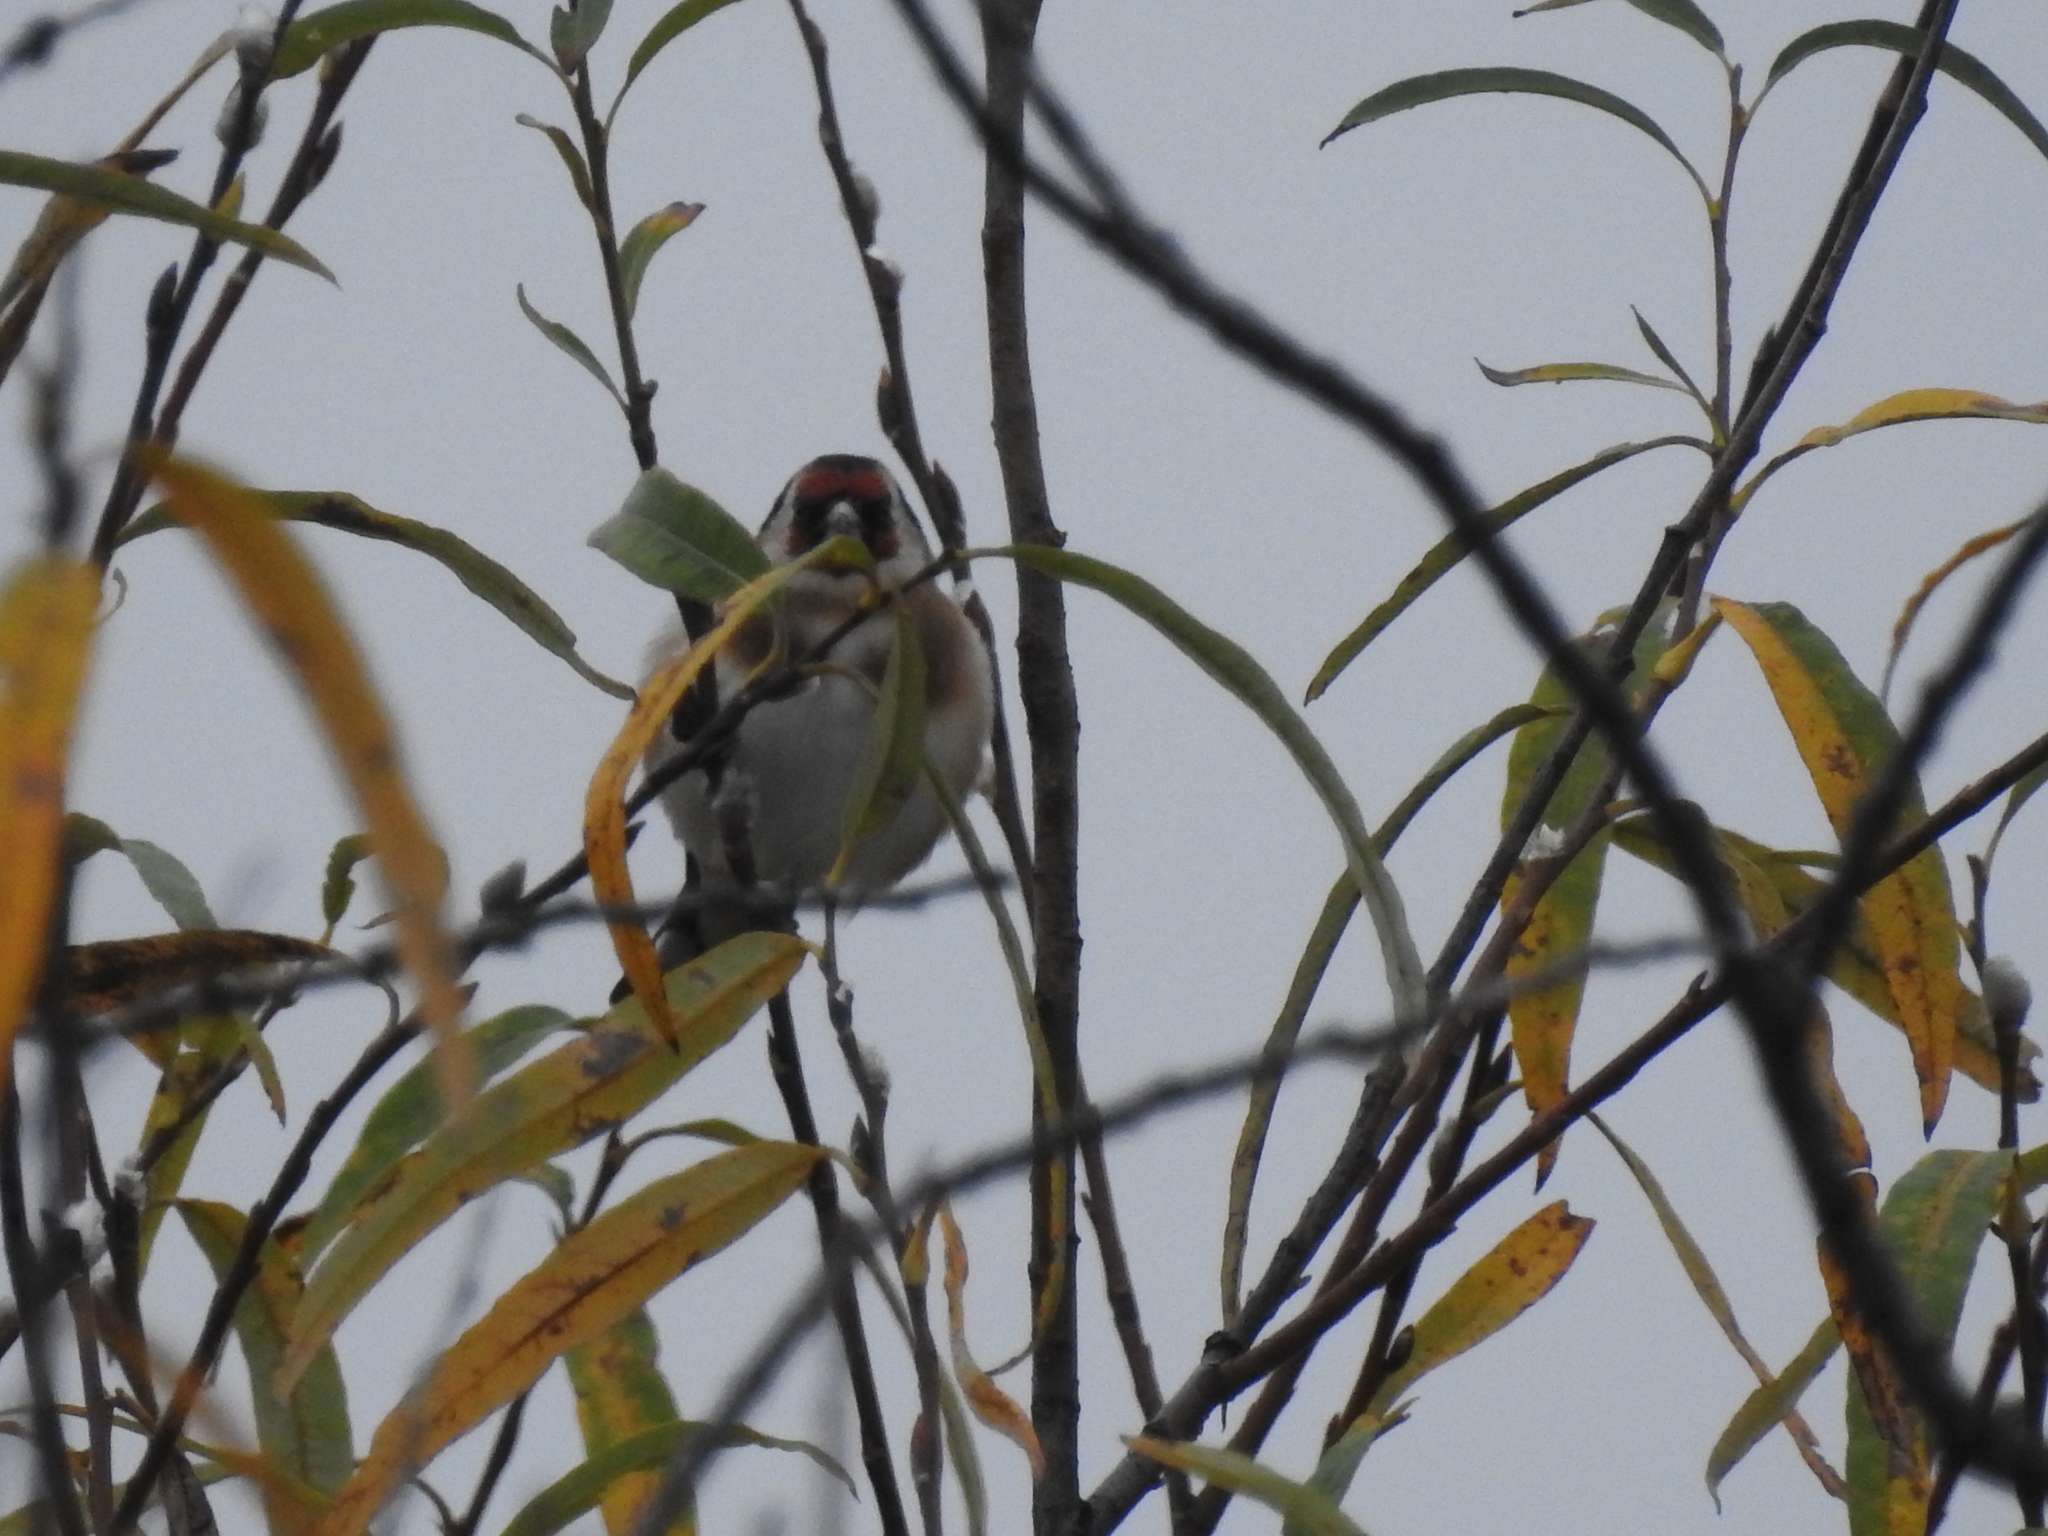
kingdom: Animalia
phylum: Chordata
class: Aves
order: Passeriformes
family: Fringillidae
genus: Carduelis
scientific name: Carduelis carduelis
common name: European goldfinch
